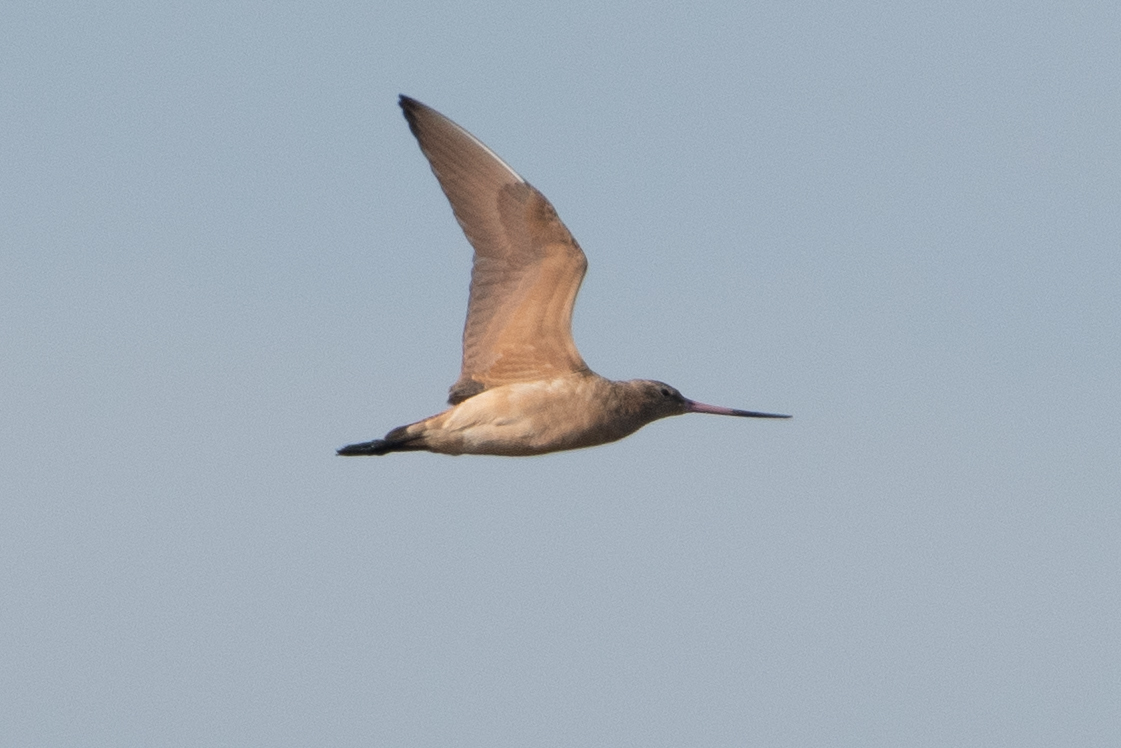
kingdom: Animalia
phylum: Chordata
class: Aves
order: Charadriiformes
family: Scolopacidae
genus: Limosa
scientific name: Limosa fedoa
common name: Marbled godwit
